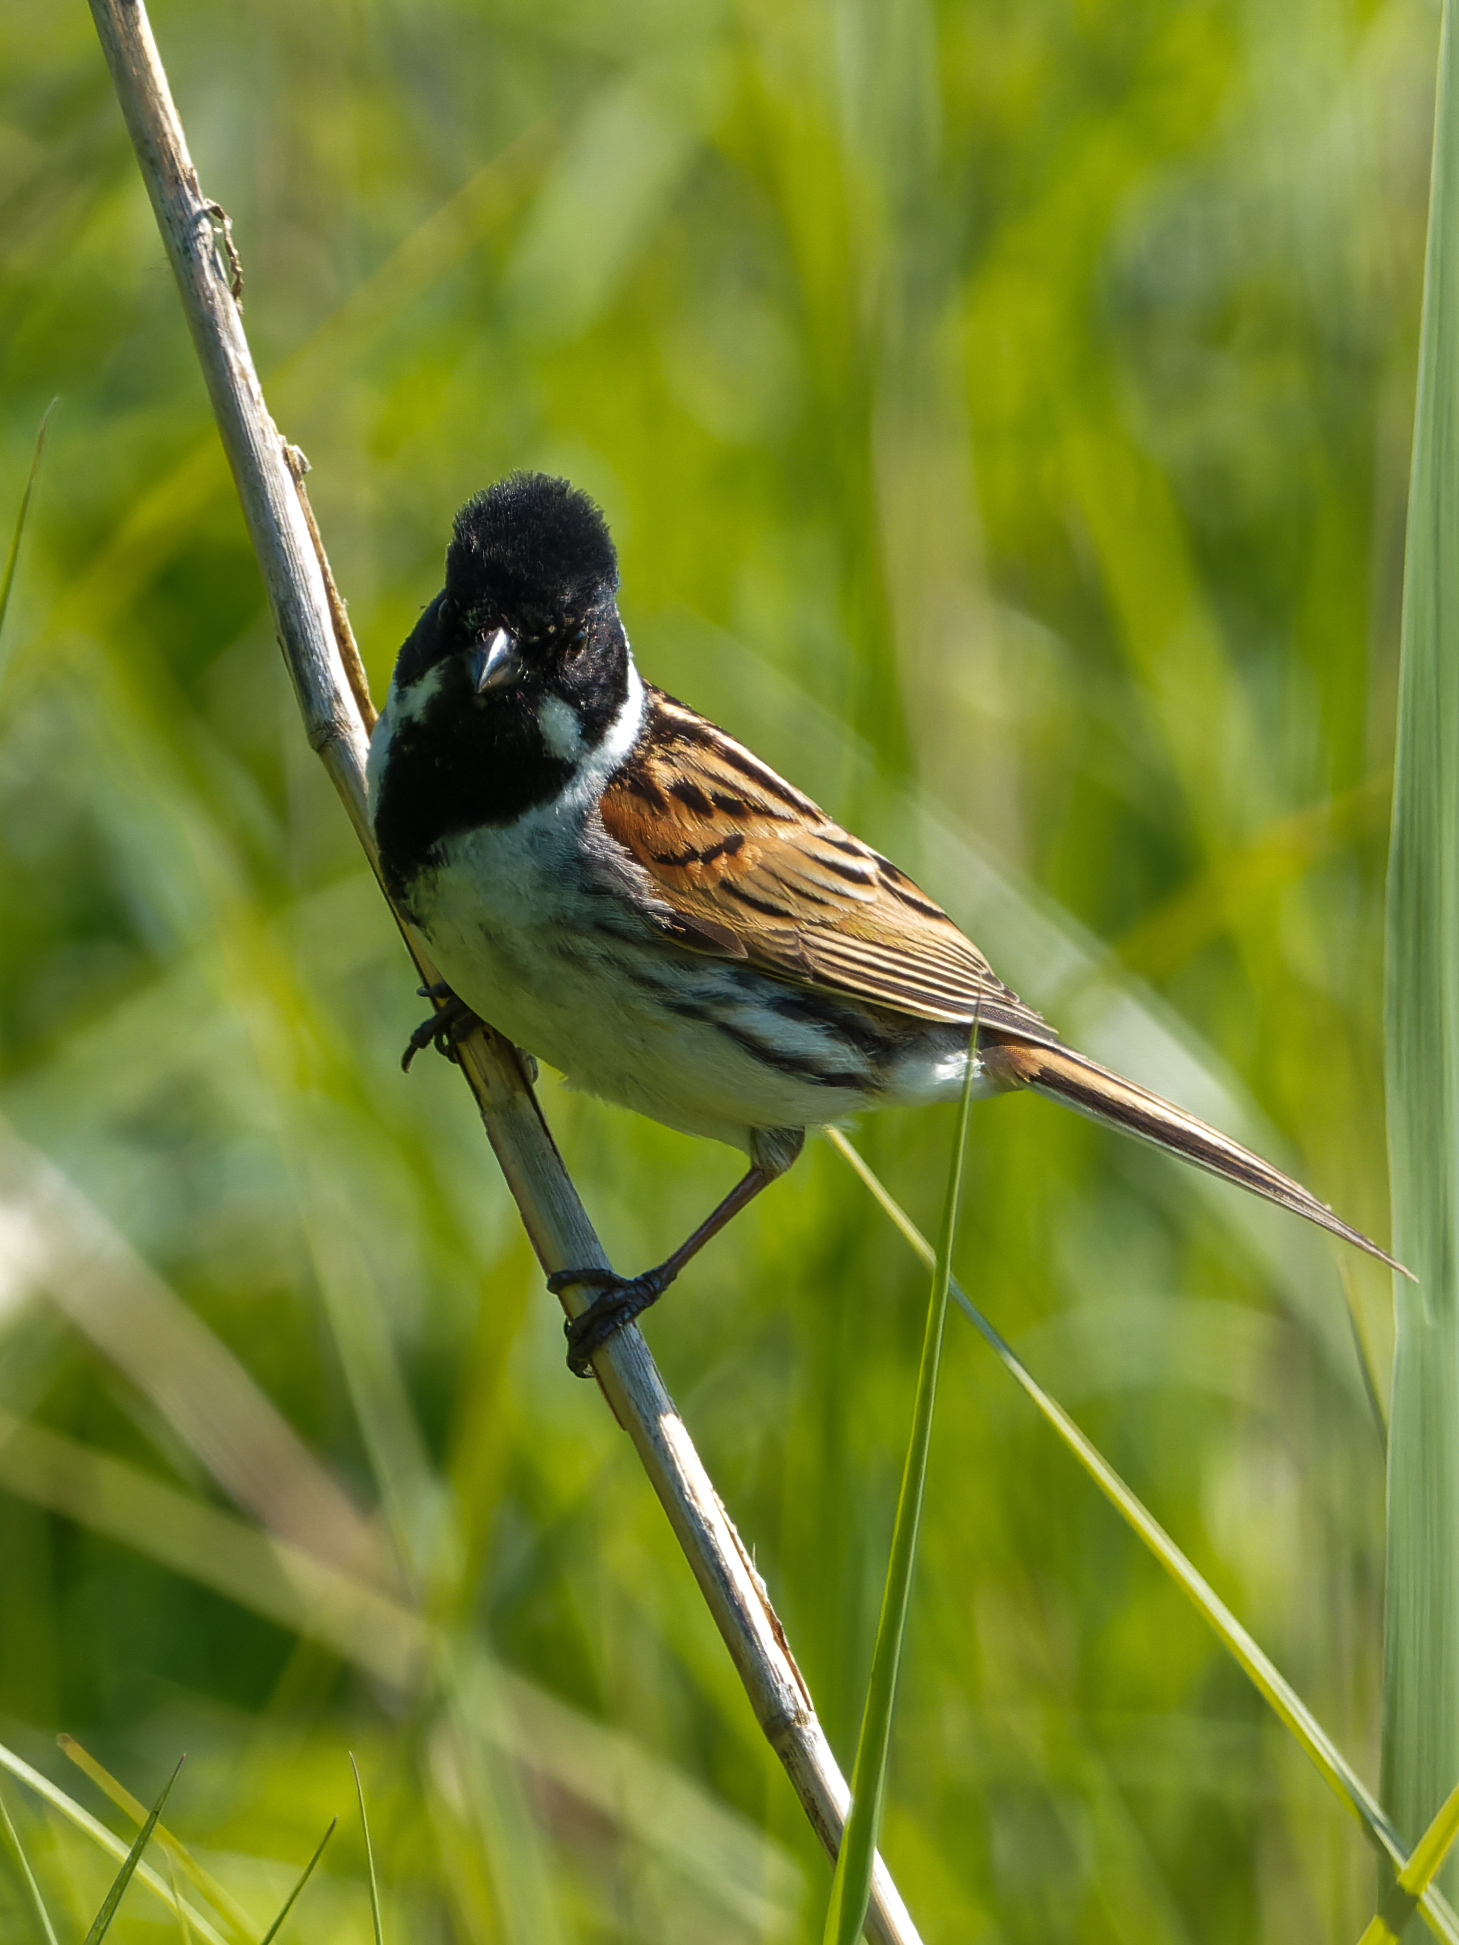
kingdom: Animalia
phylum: Chordata
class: Aves
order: Passeriformes
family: Emberizidae
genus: Emberiza
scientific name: Emberiza schoeniclus
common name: Reed bunting
